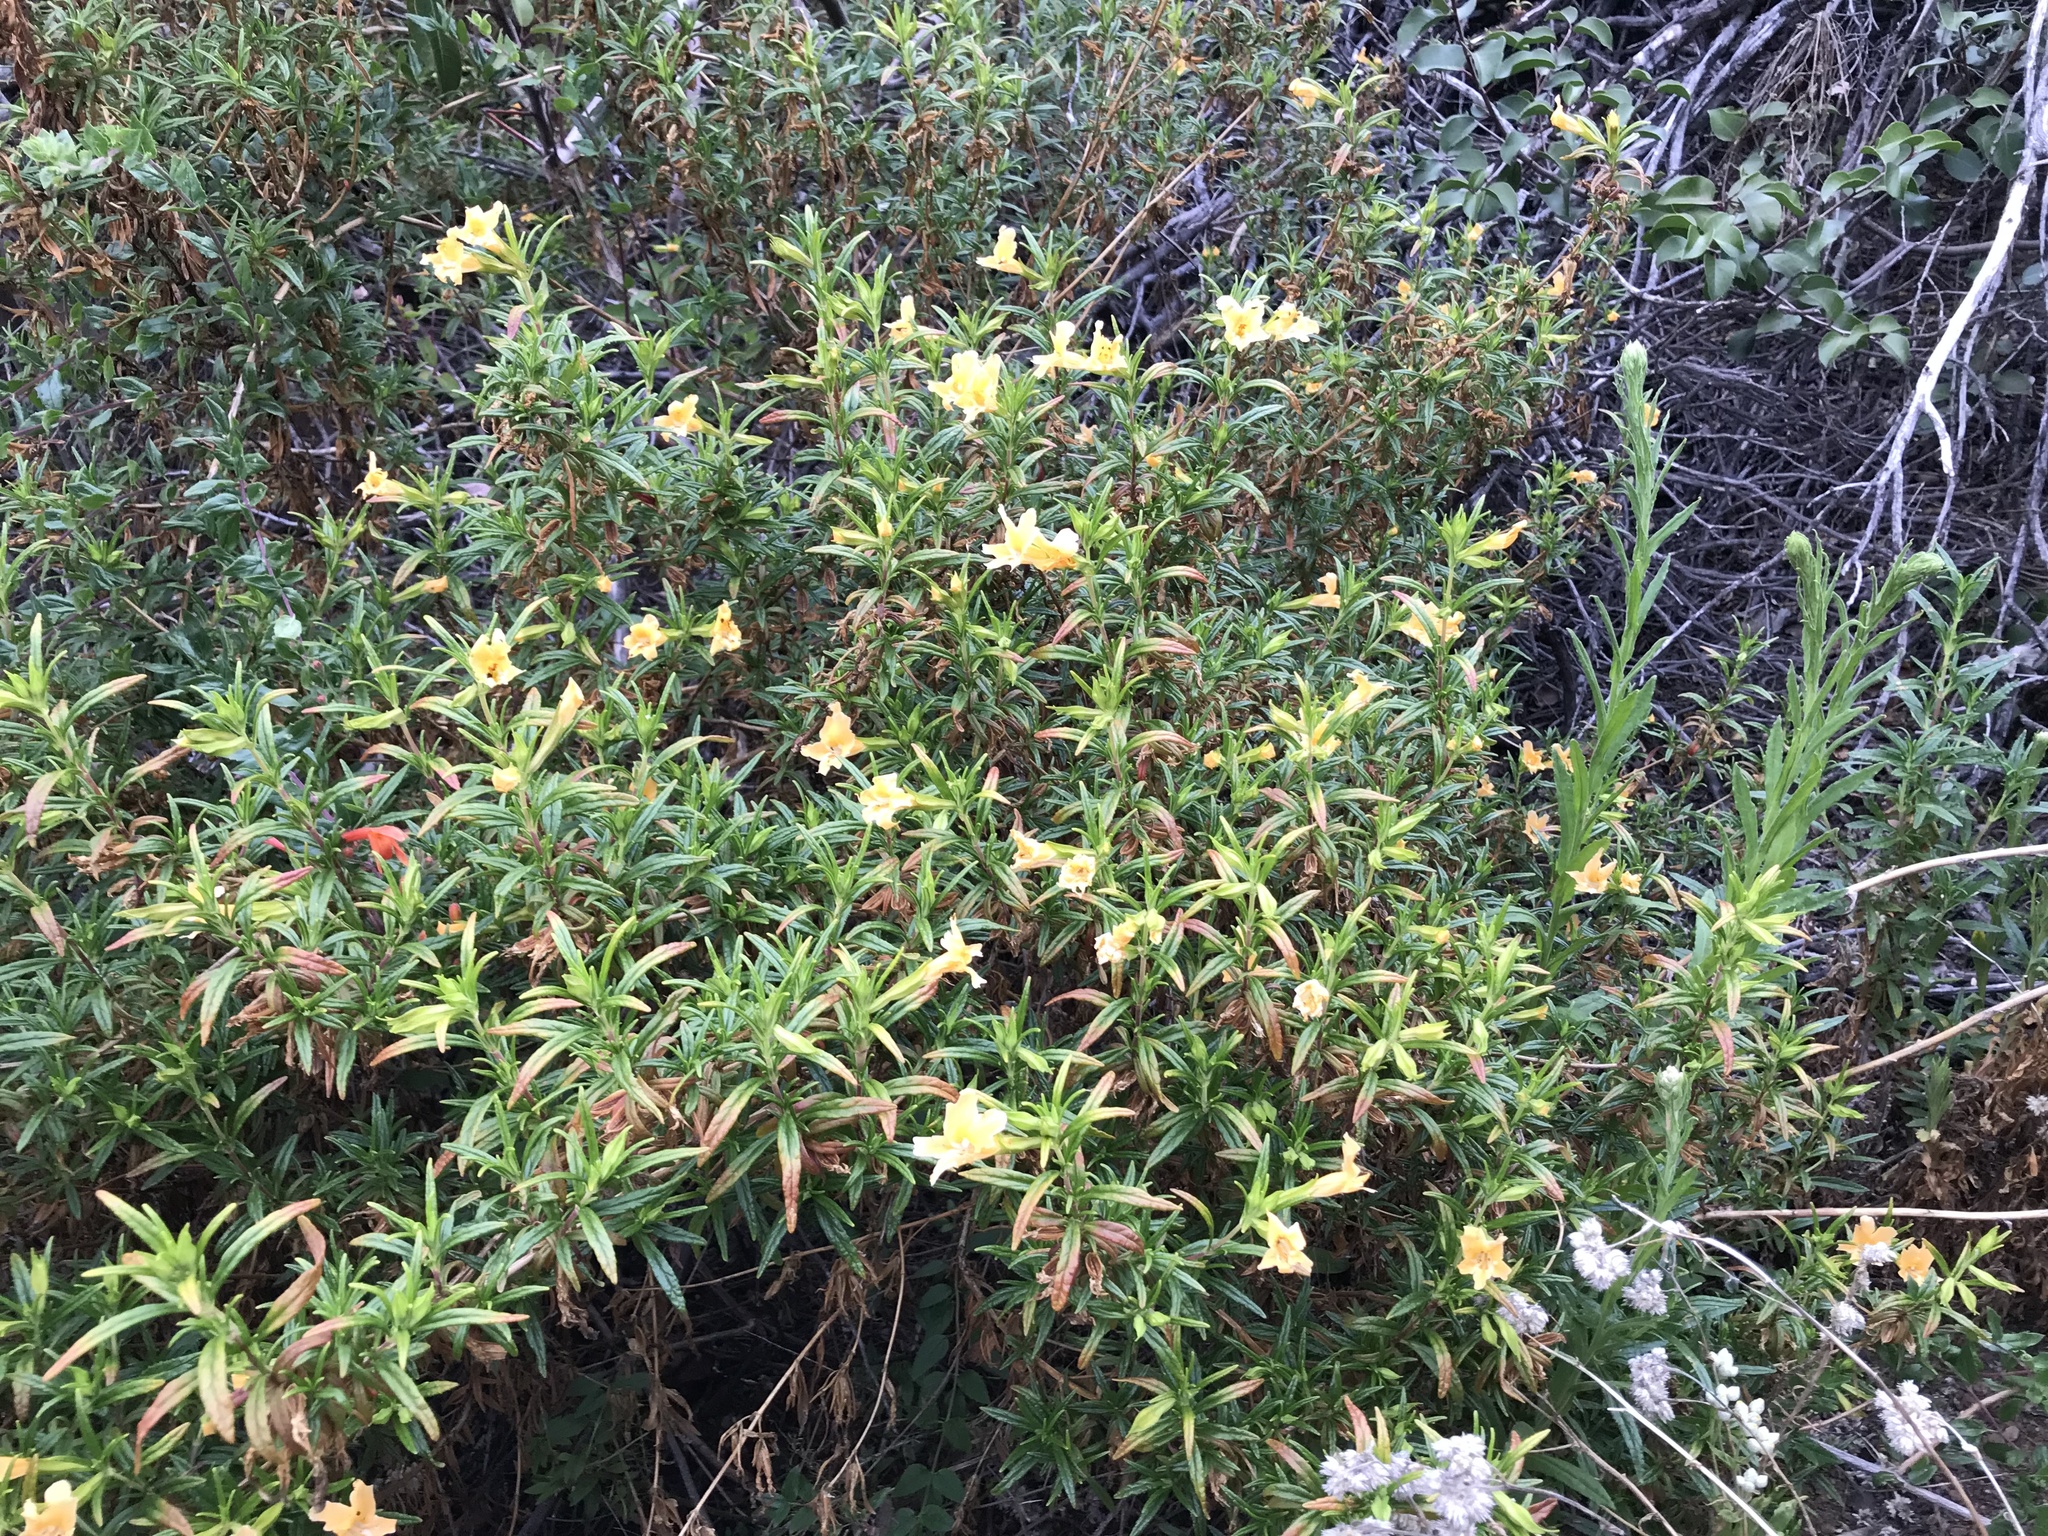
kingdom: Plantae
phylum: Tracheophyta
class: Magnoliopsida
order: Lamiales
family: Phrymaceae
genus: Diplacus
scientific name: Diplacus australis
